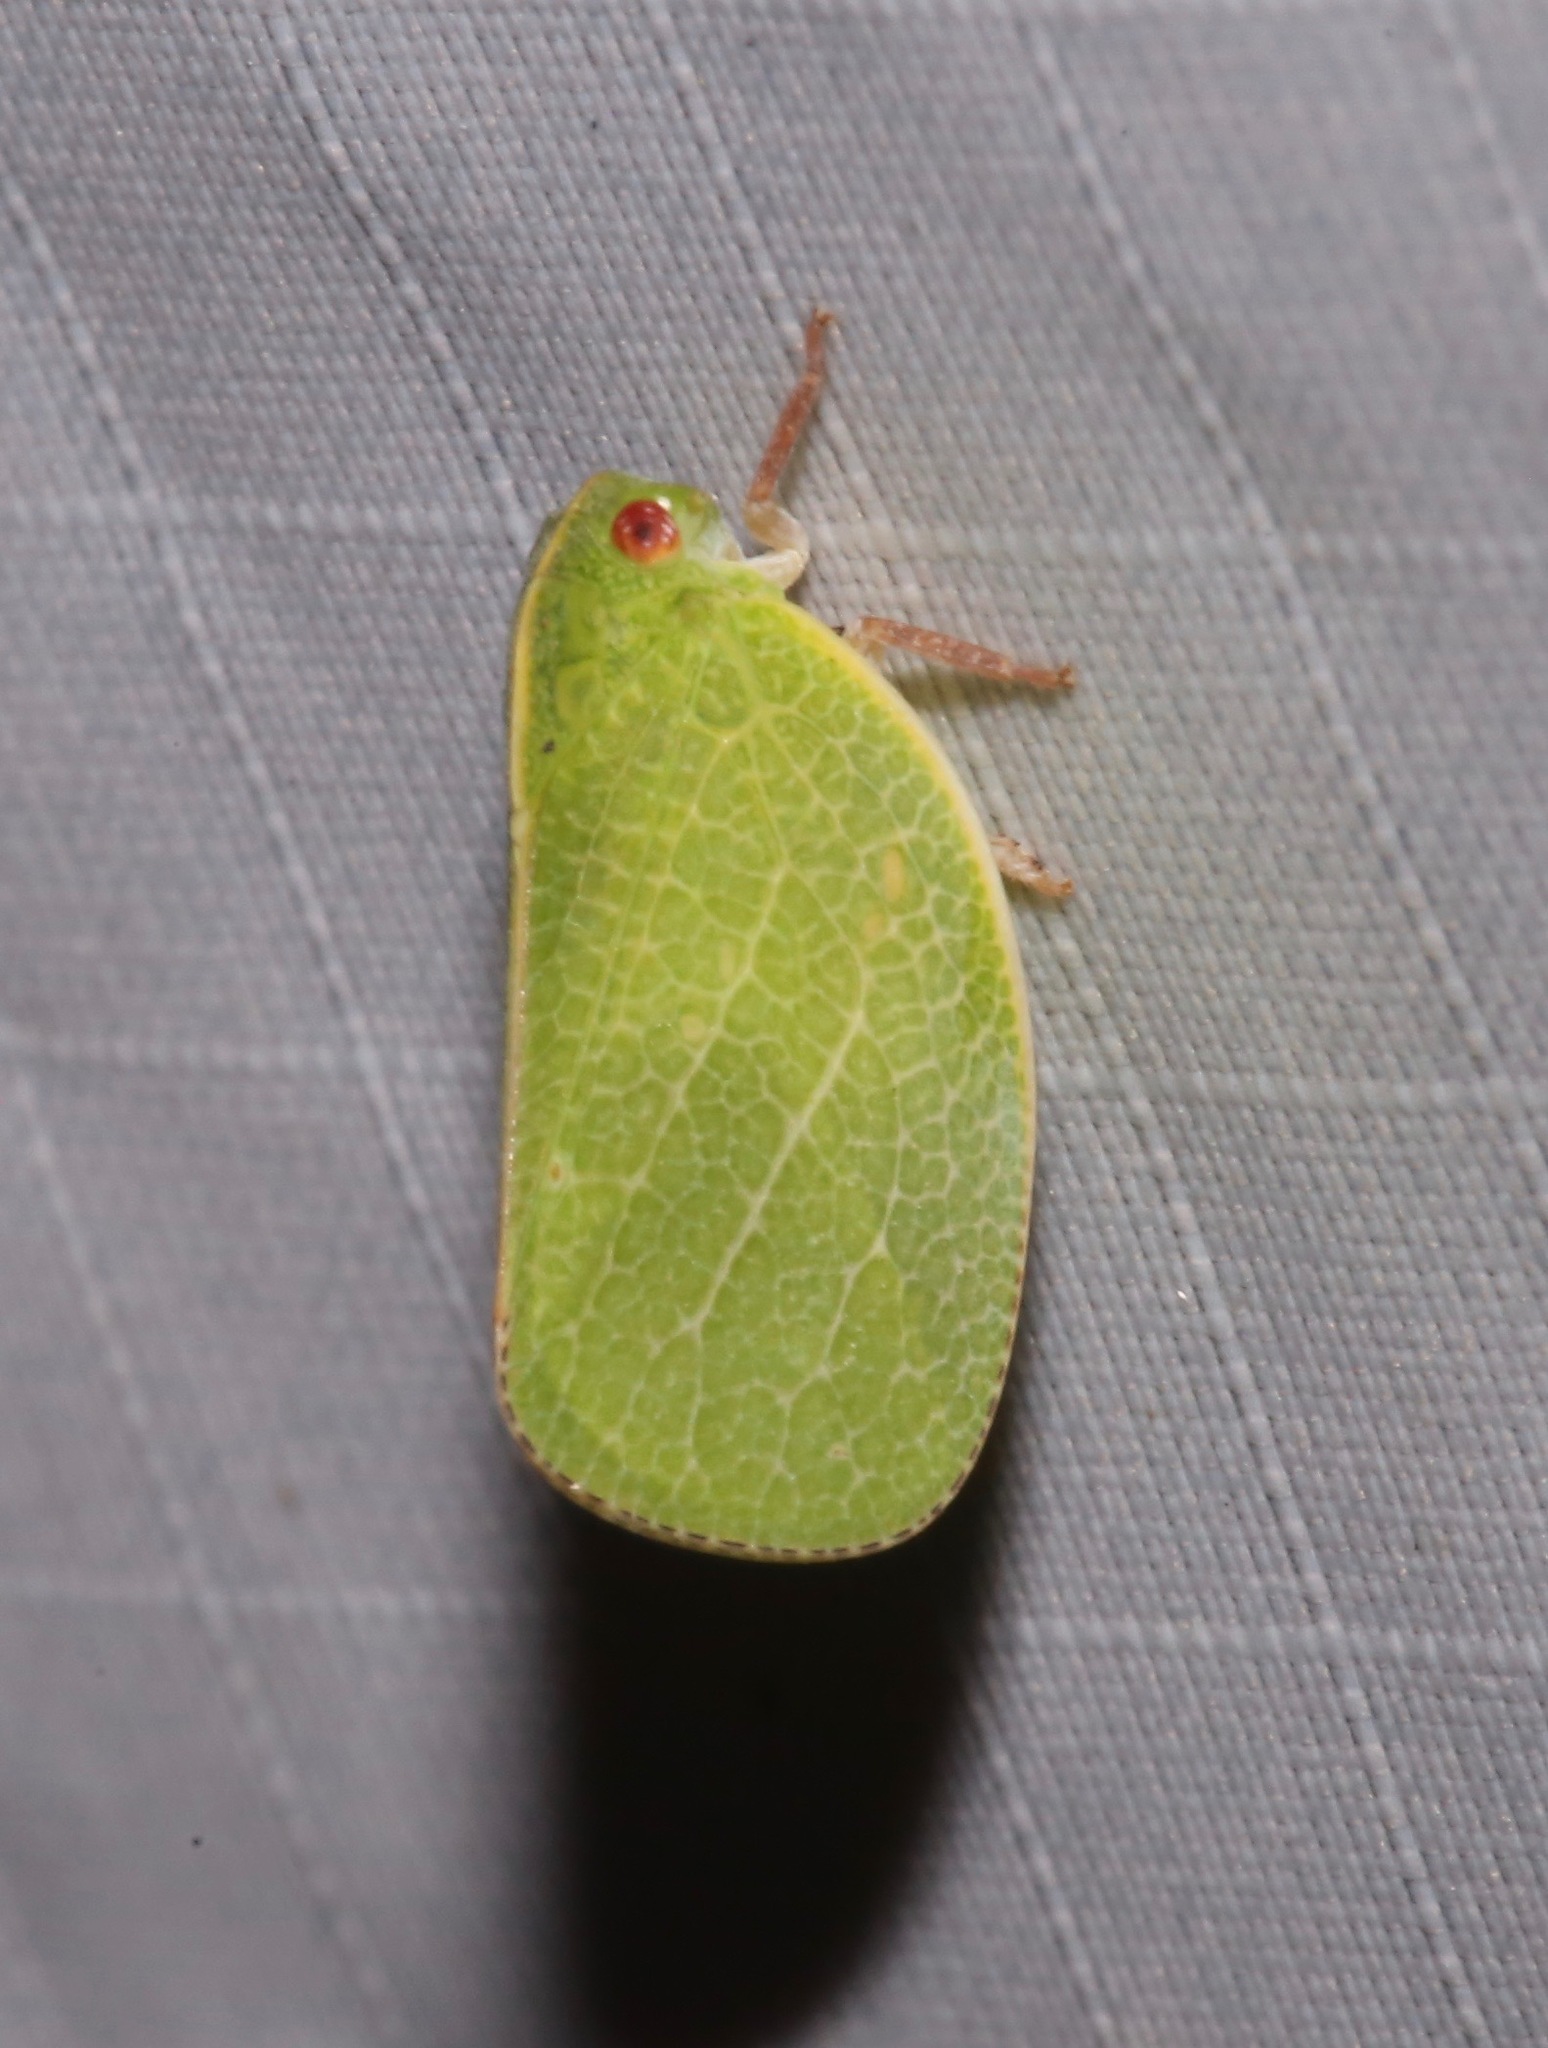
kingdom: Animalia
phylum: Arthropoda
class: Insecta
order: Hemiptera
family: Acanaloniidae
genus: Acanalonia
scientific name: Acanalonia servillei
